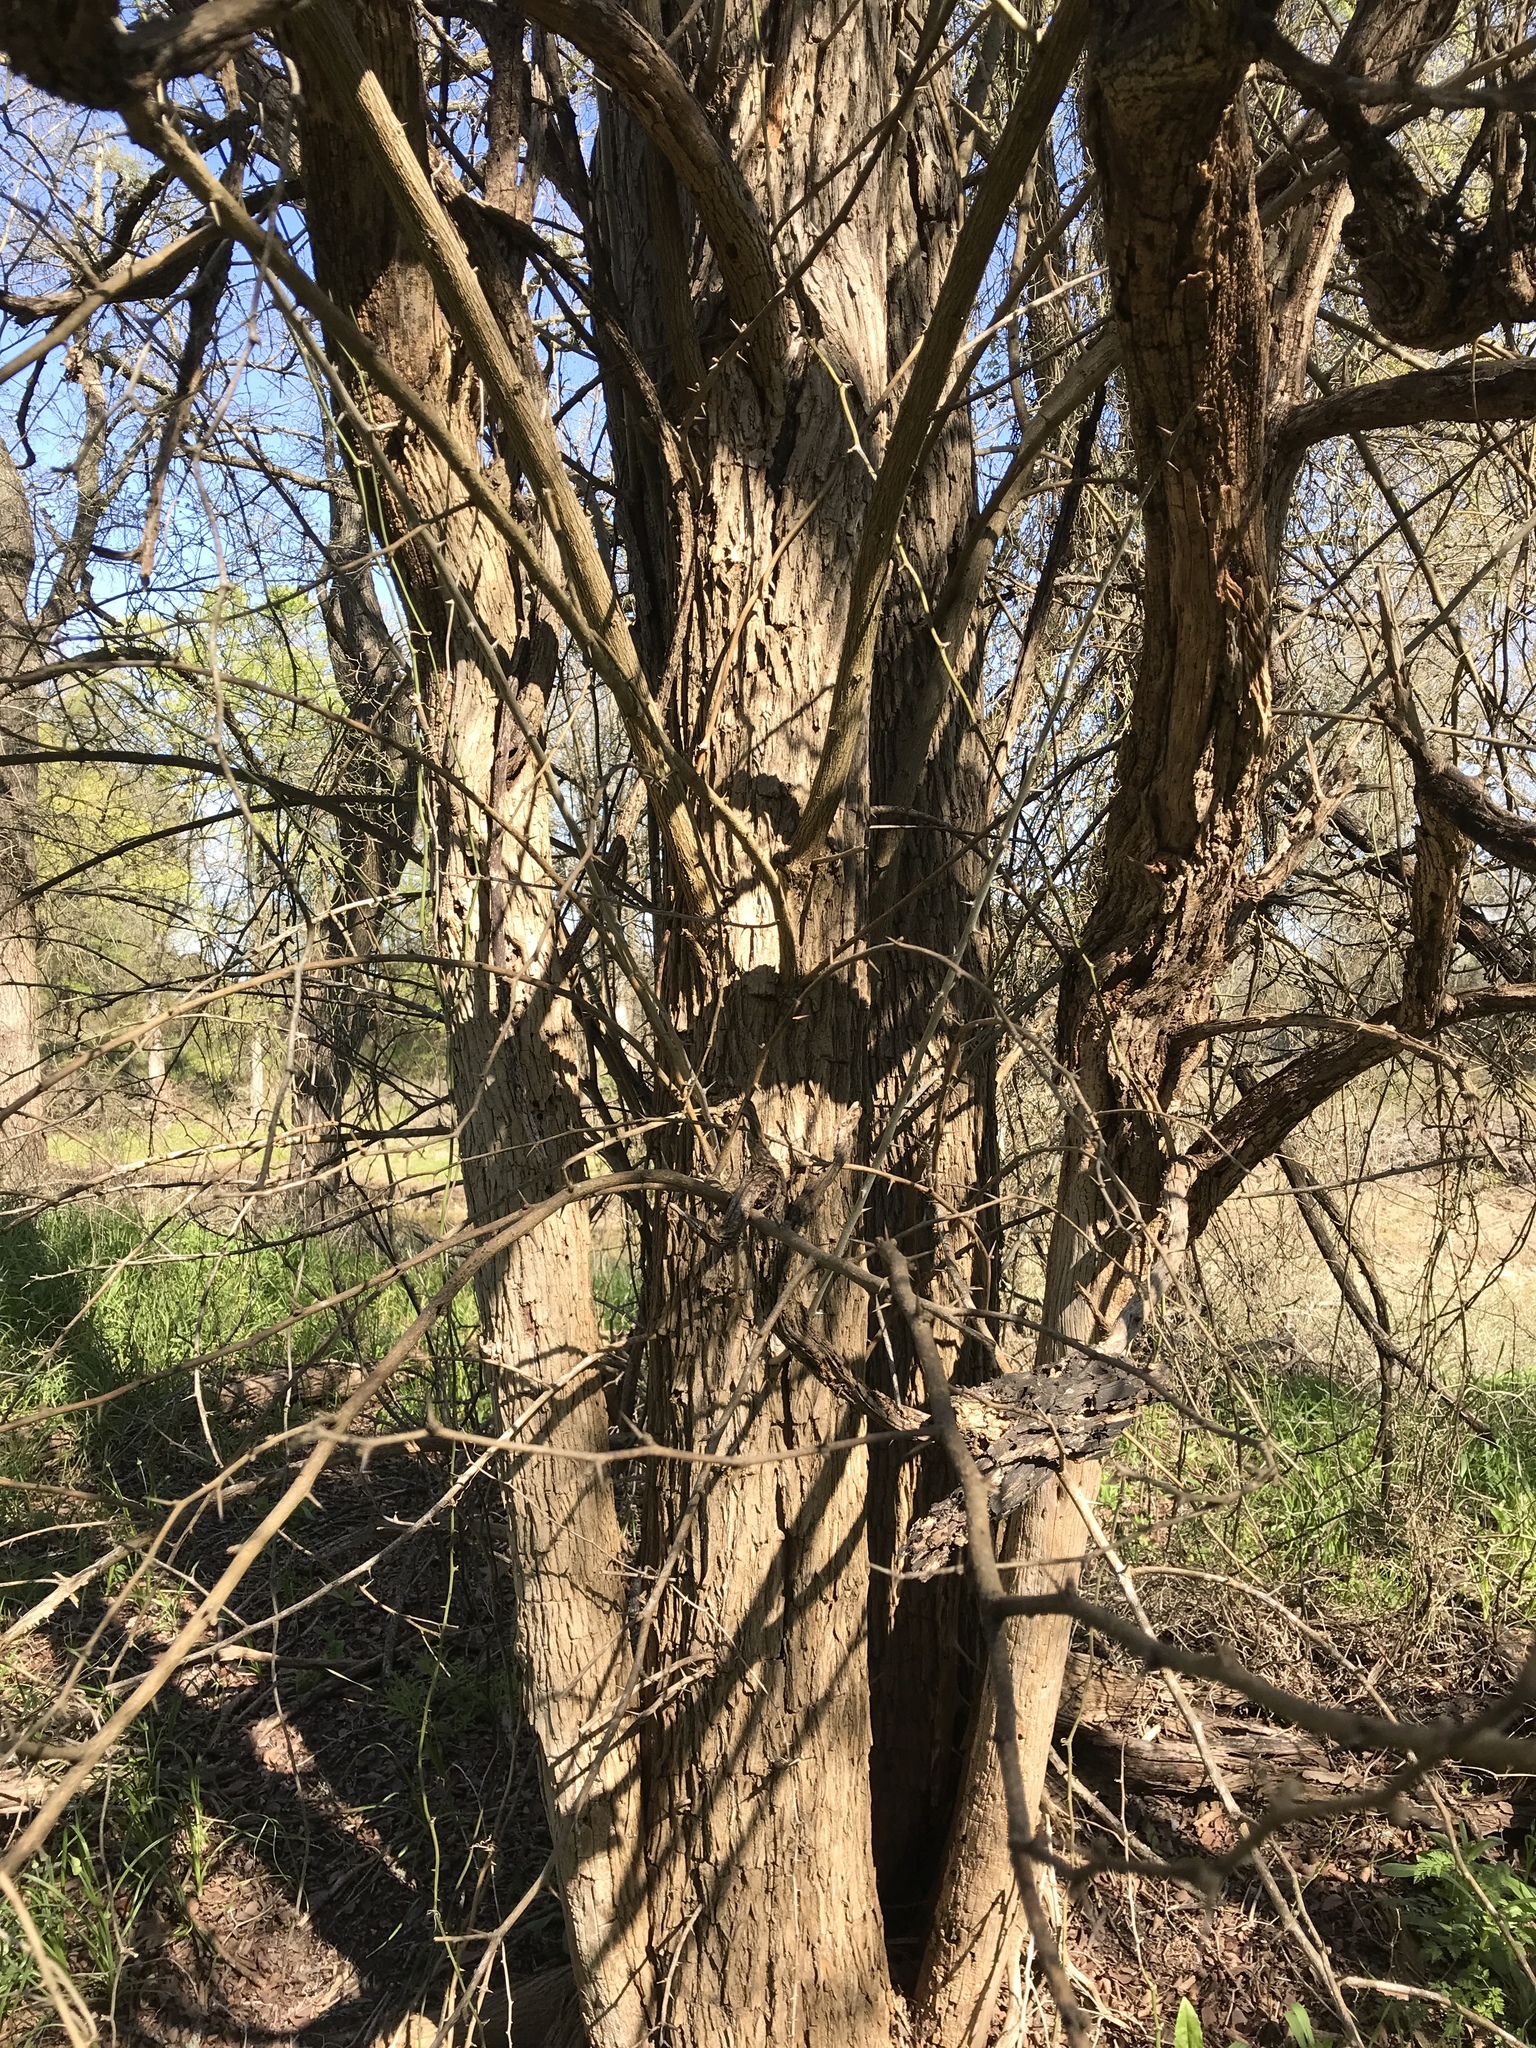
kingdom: Plantae
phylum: Tracheophyta
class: Magnoliopsida
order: Rosales
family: Moraceae
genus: Maclura
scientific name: Maclura pomifera
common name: Osage-orange
